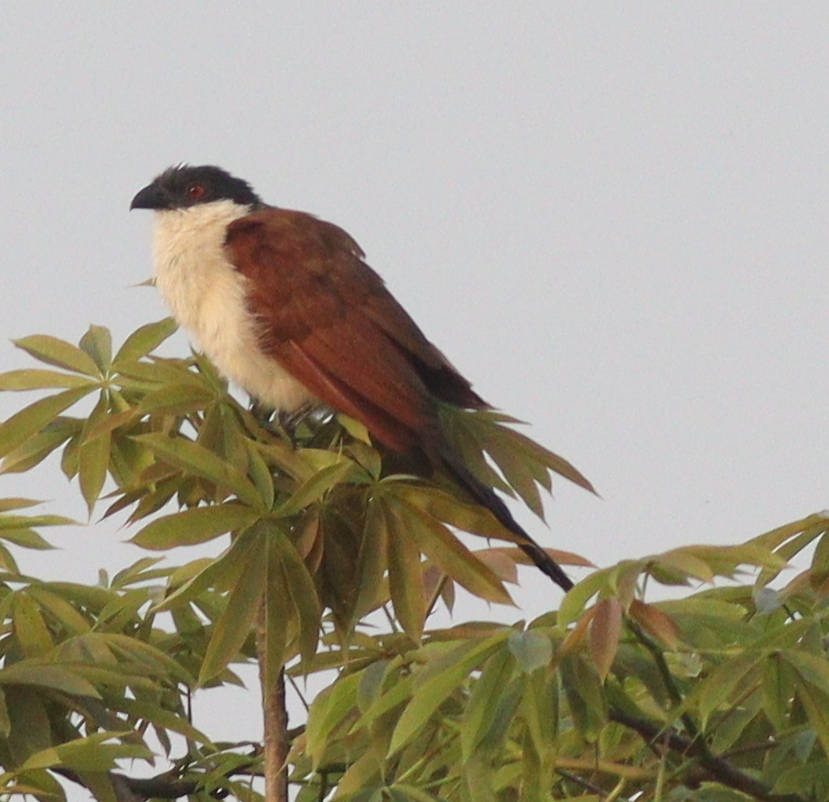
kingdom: Animalia
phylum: Chordata
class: Aves
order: Cuculiformes
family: Cuculidae
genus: Centropus
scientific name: Centropus senegalensis
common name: Senegal coucal
